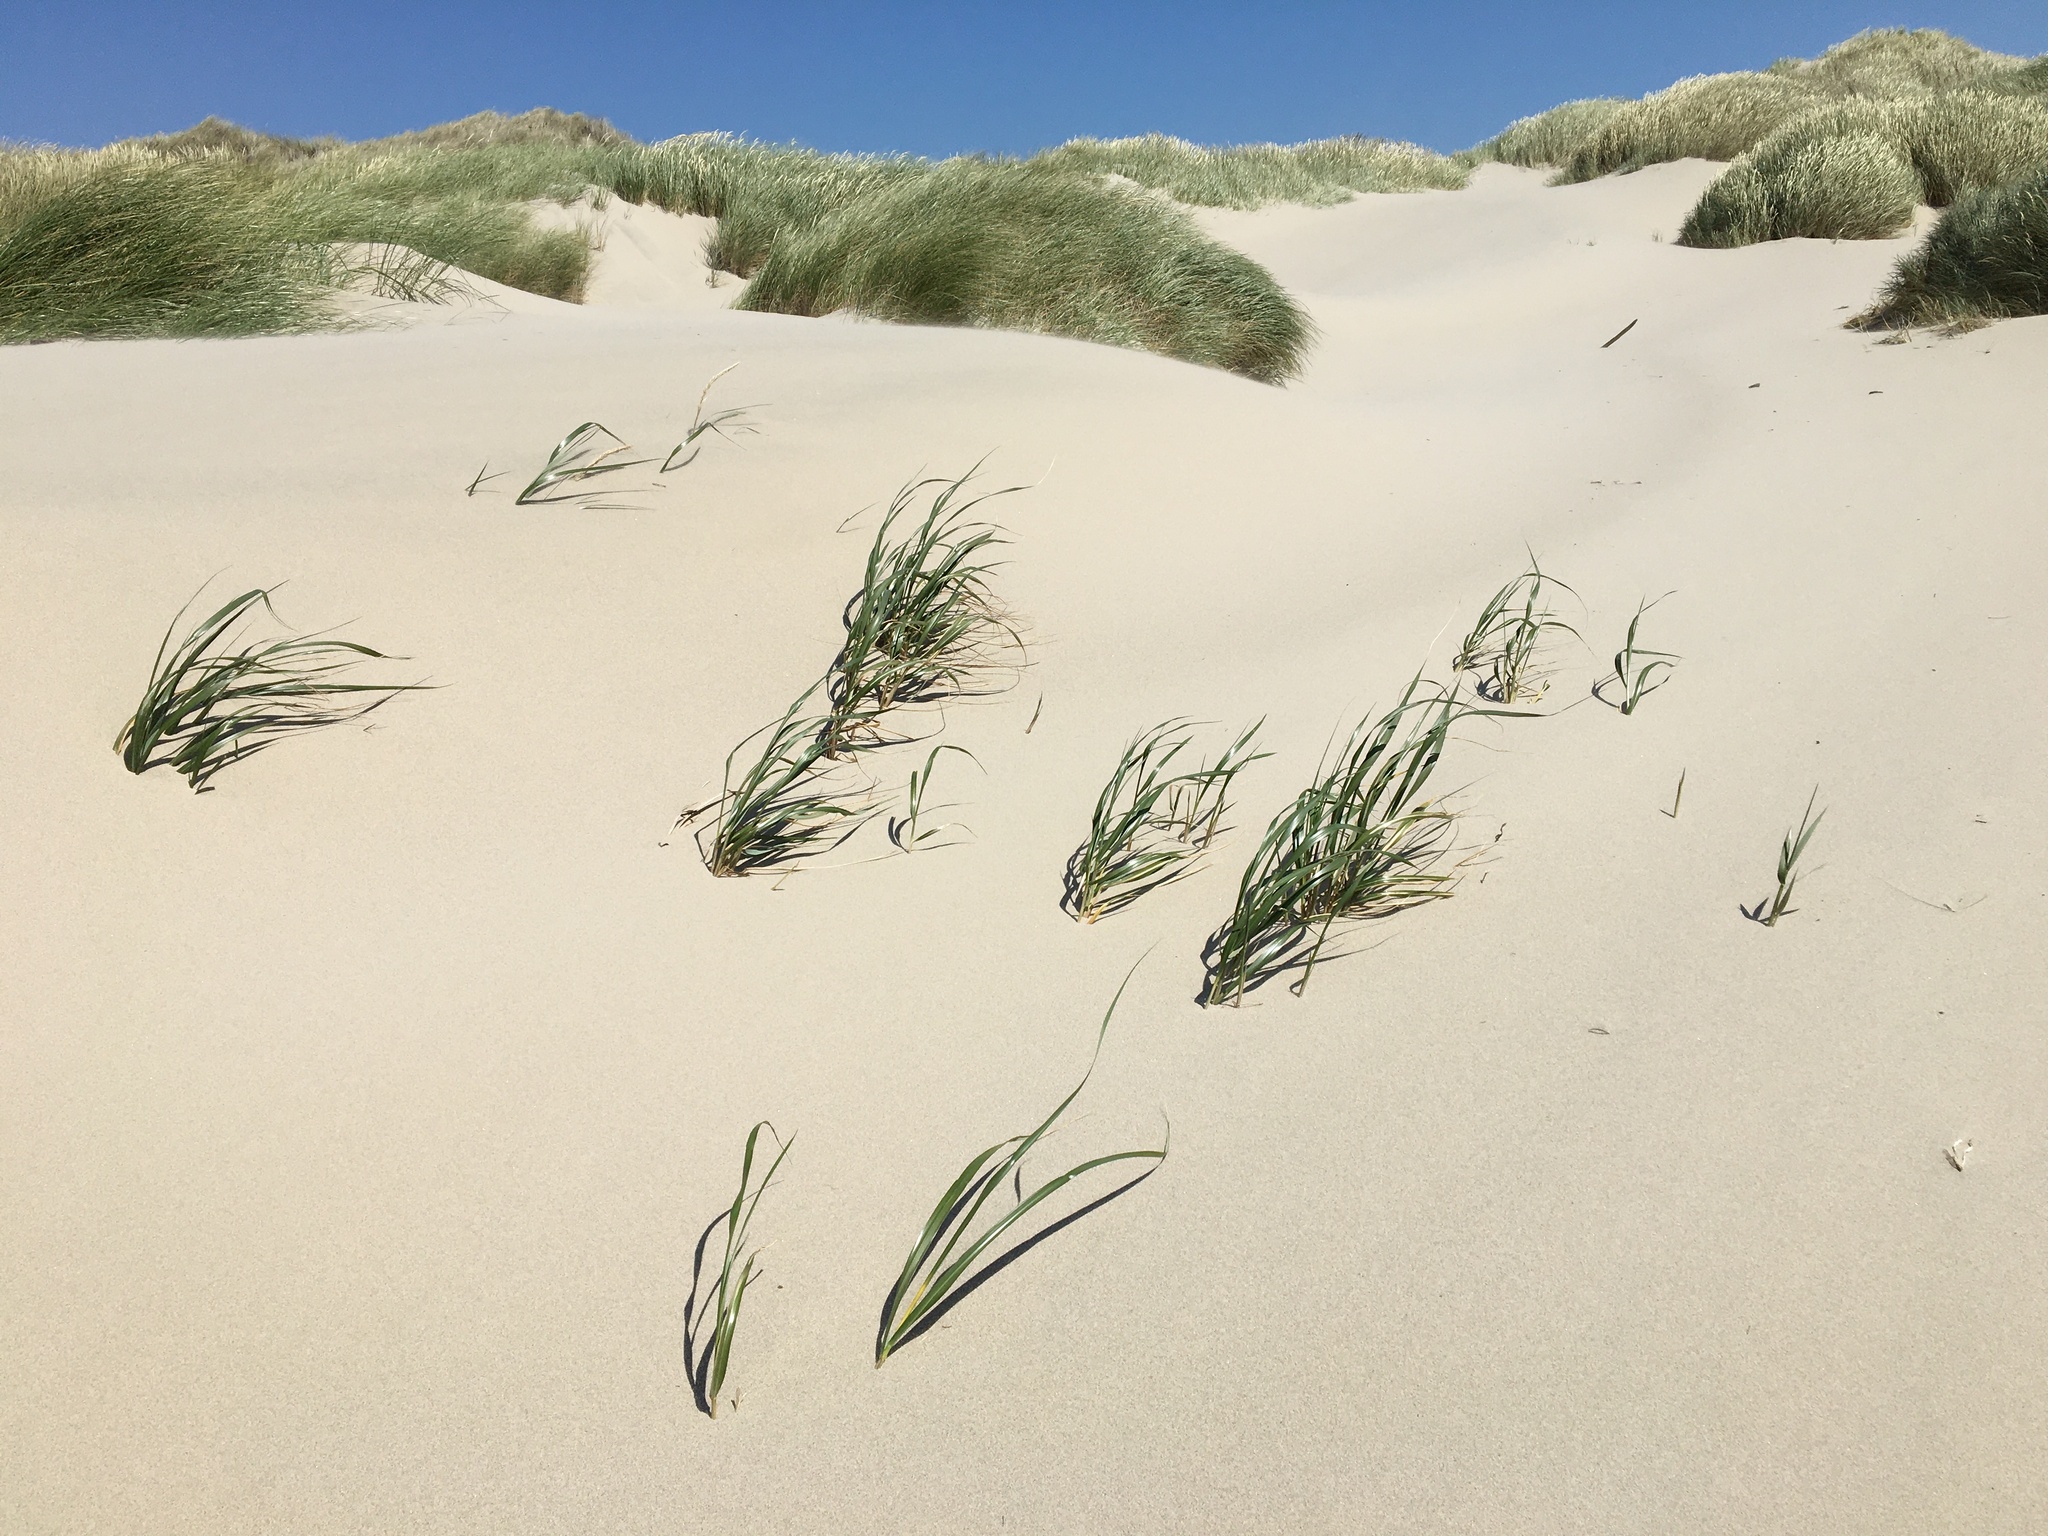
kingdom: Plantae
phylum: Tracheophyta
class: Liliopsida
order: Poales
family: Poaceae
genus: Leymus
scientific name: Leymus mollis
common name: American dune grass
